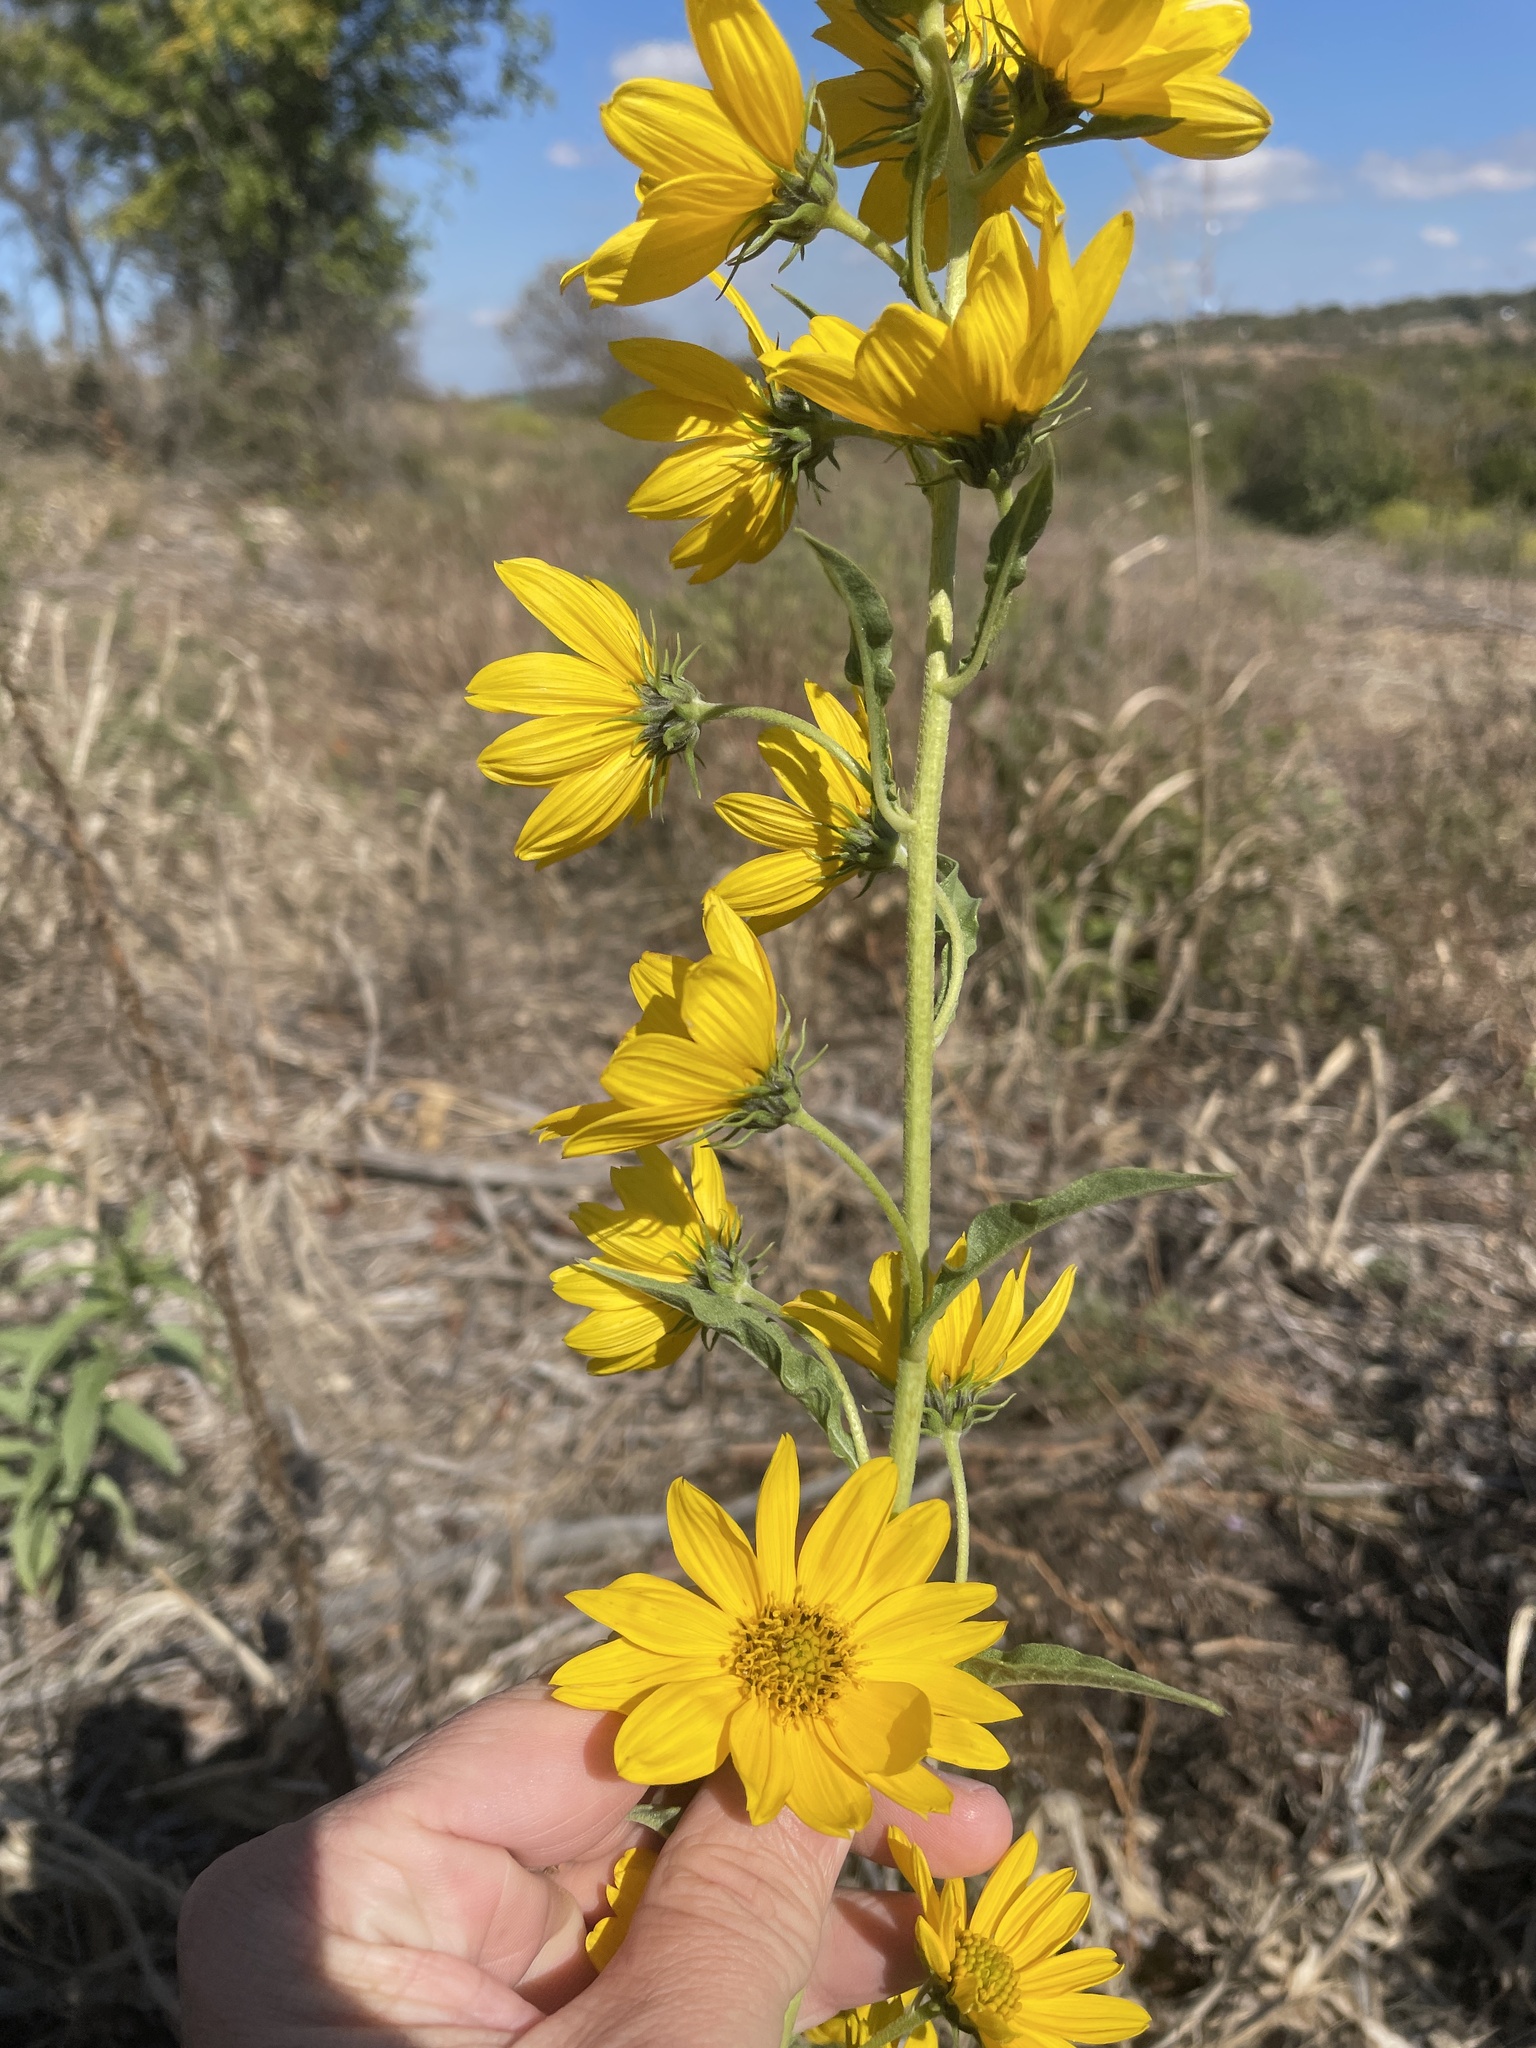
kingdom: Plantae
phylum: Tracheophyta
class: Magnoliopsida
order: Asterales
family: Asteraceae
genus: Helianthus
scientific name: Helianthus maximiliani
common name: Maximilian's sunflower
